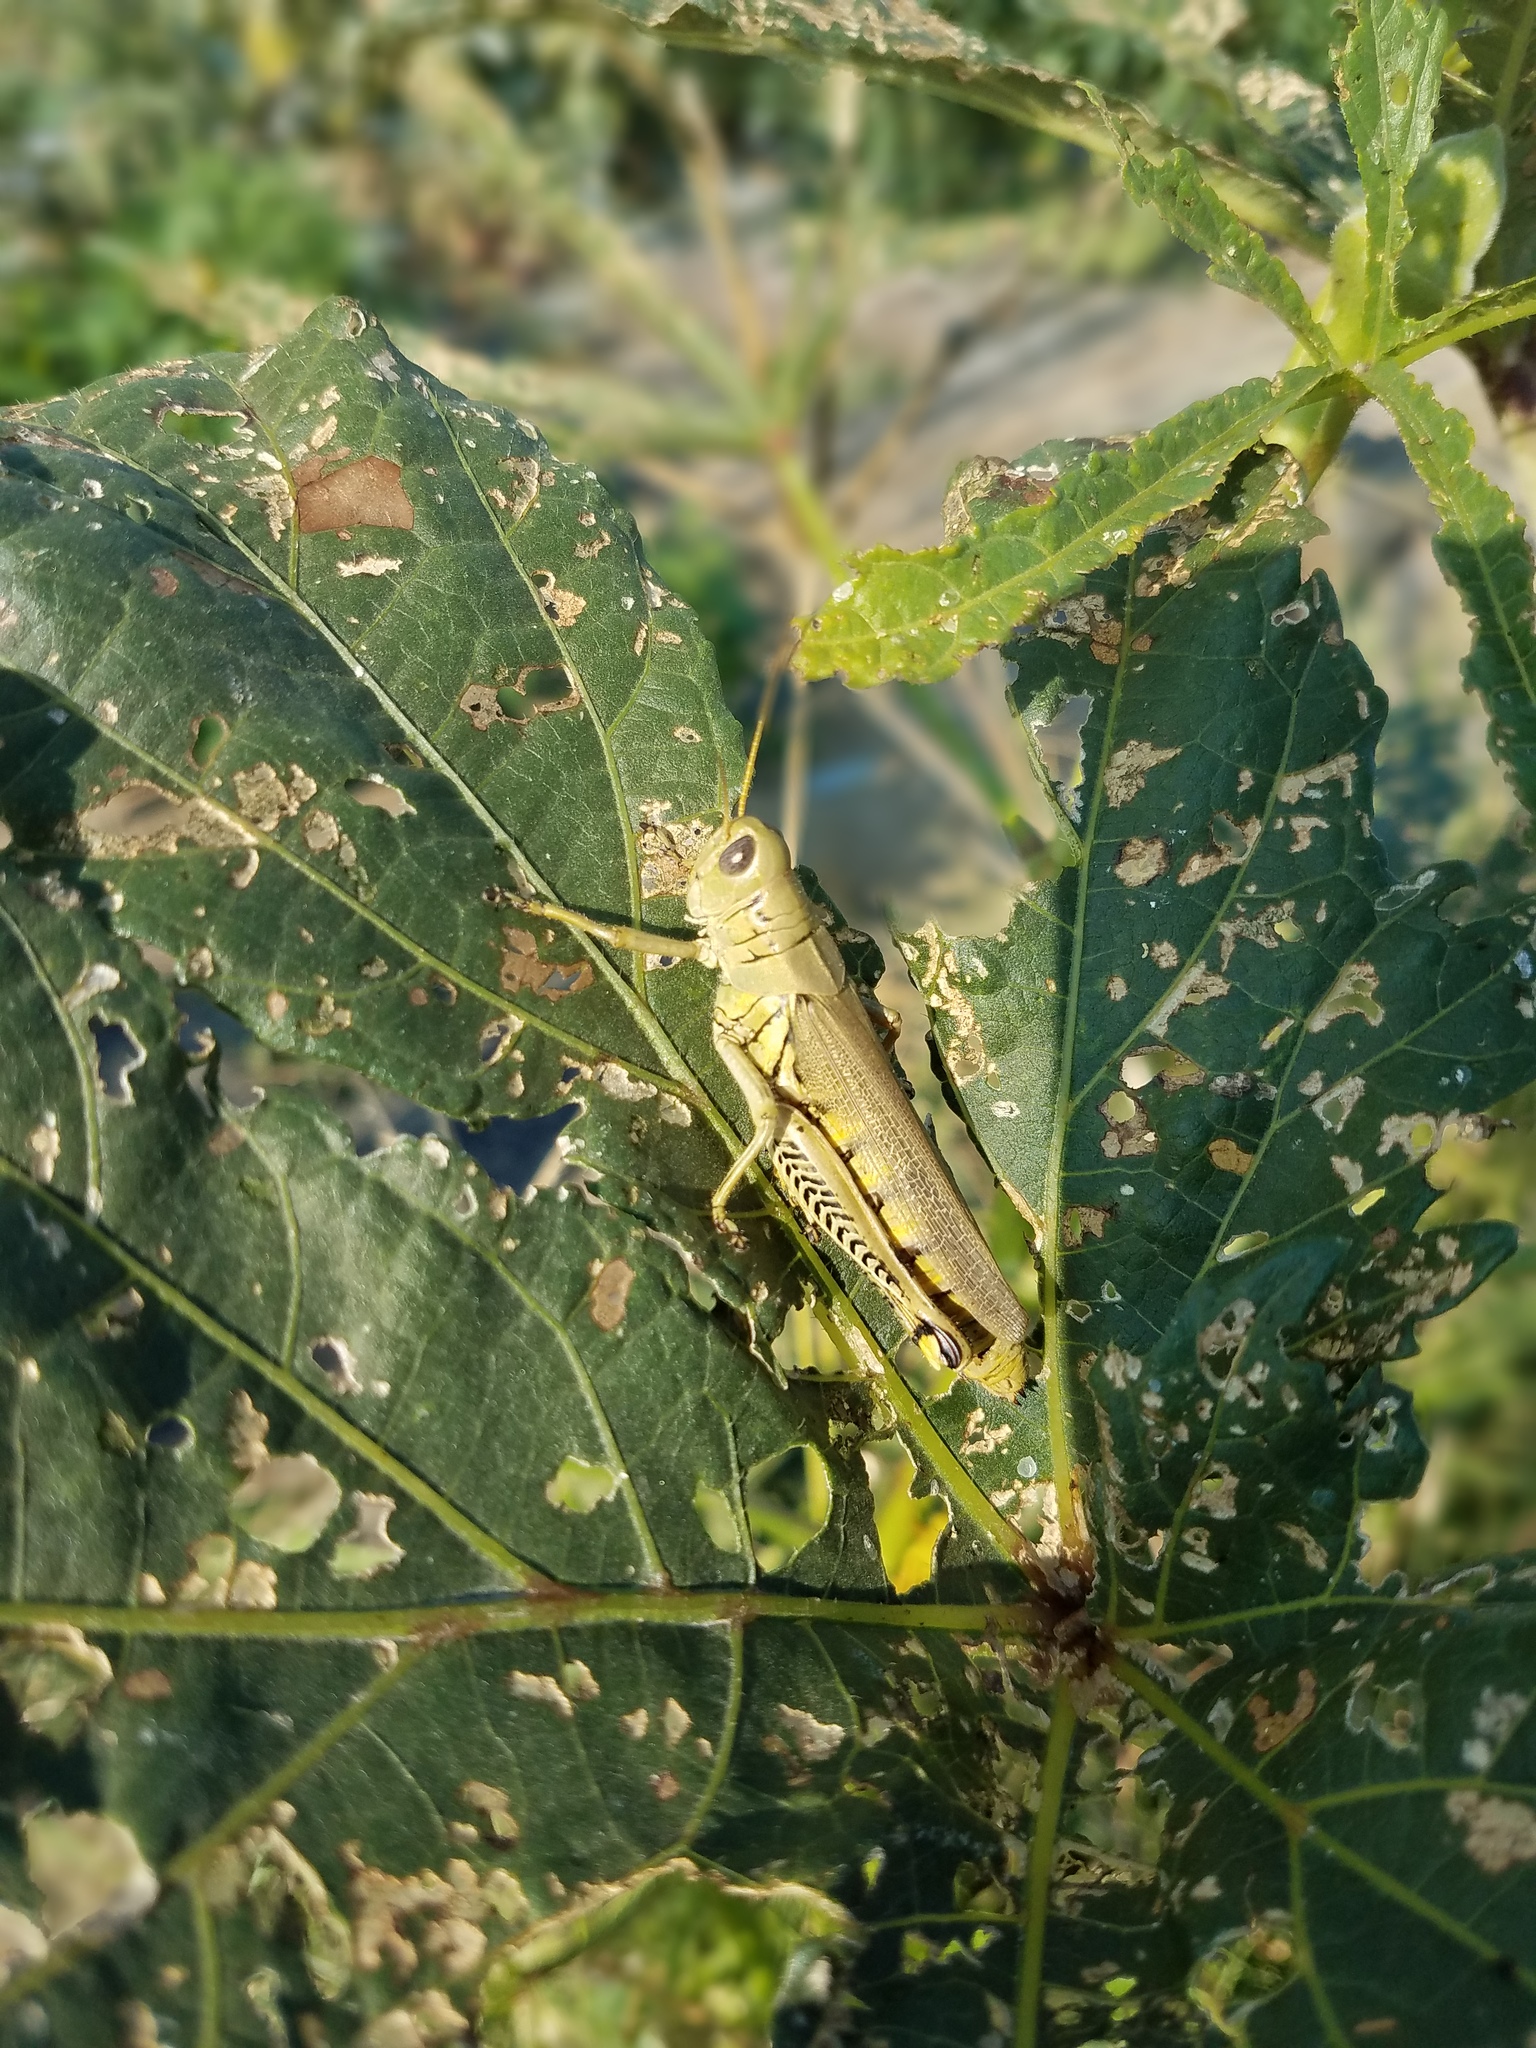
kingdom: Animalia
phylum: Arthropoda
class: Insecta
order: Orthoptera
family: Acrididae
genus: Melanoplus
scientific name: Melanoplus differentialis
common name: Differential grasshopper
